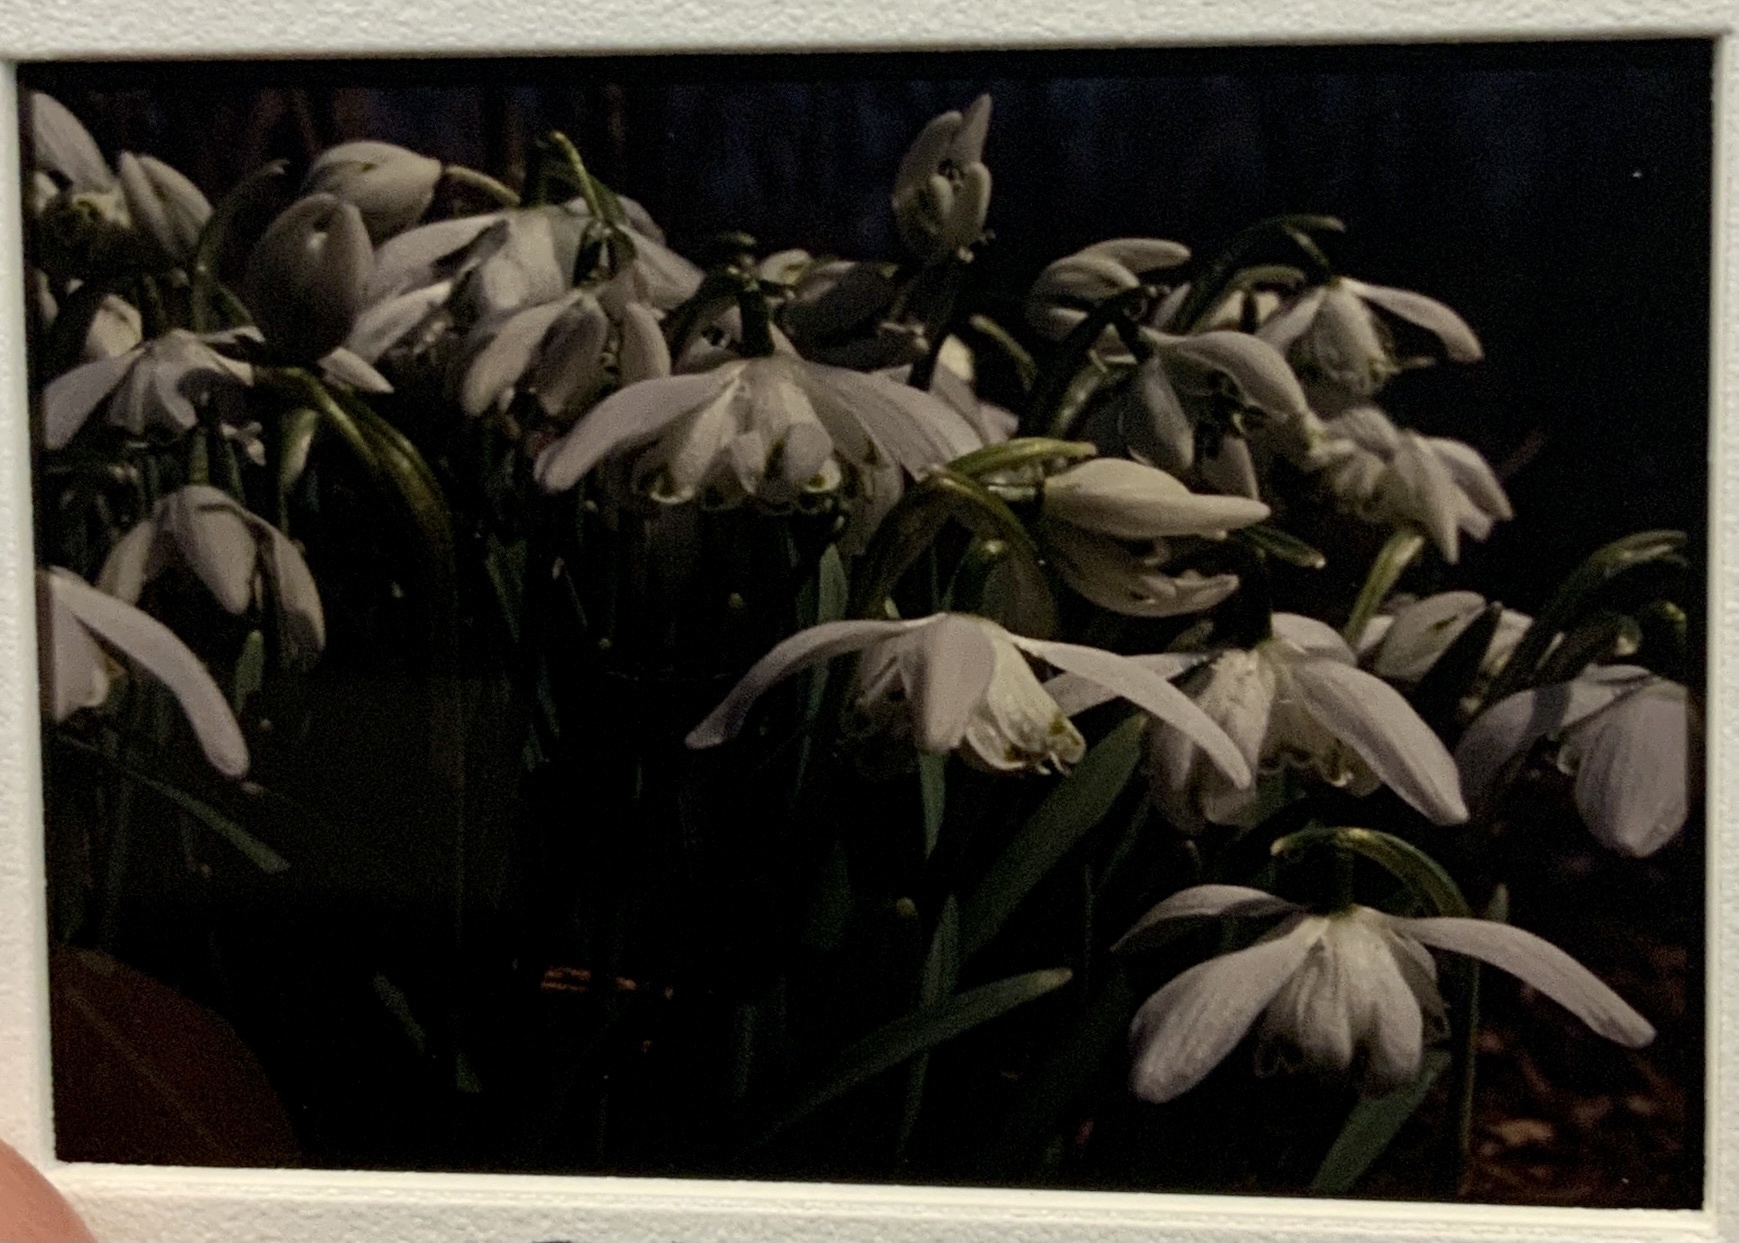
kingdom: Plantae
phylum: Tracheophyta
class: Liliopsida
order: Asparagales
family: Amaryllidaceae
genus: Galanthus
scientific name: Galanthus nivalis
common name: Snowdrop
